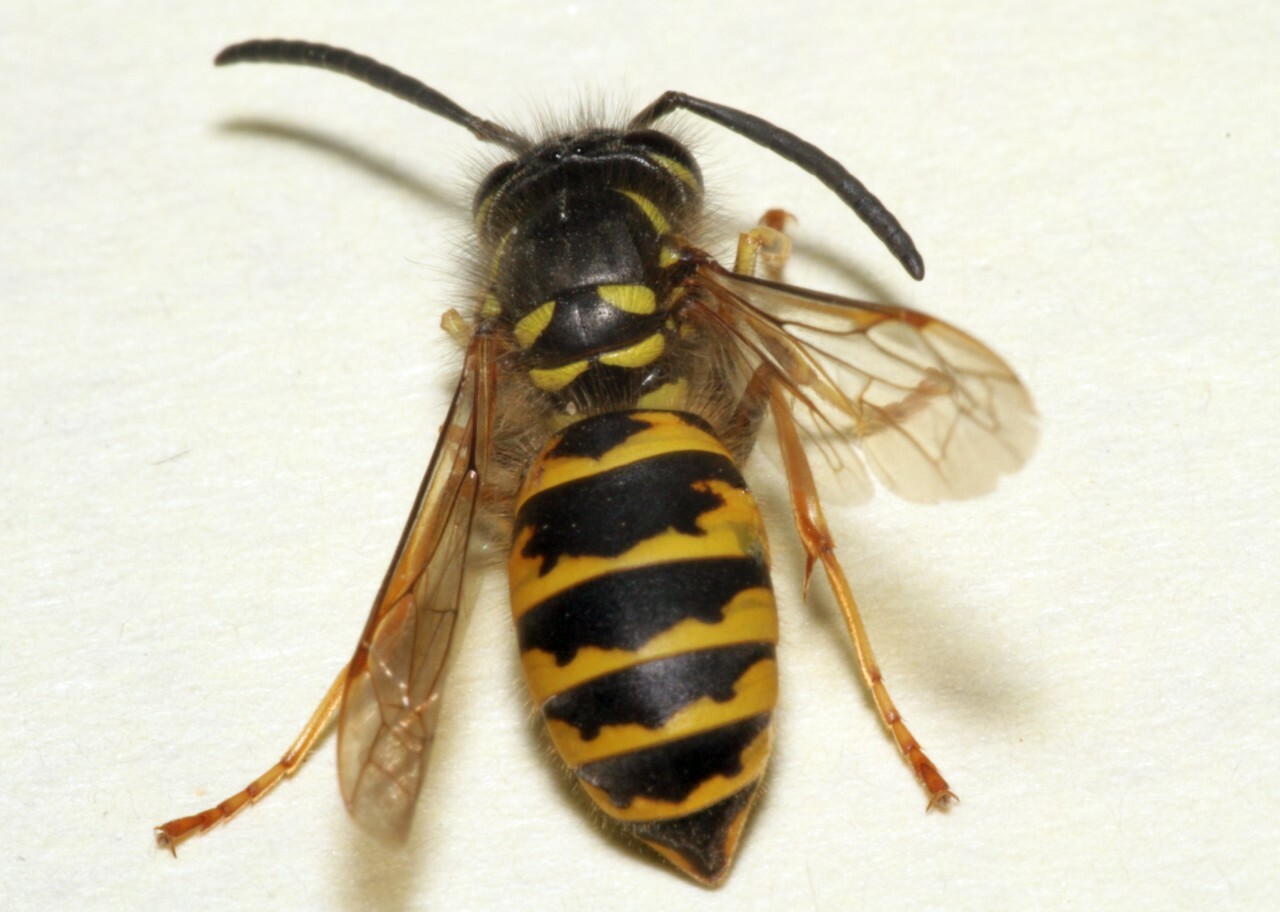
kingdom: Animalia
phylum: Arthropoda
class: Insecta
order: Hymenoptera
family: Vespidae
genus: Vespula
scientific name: Vespula vulgaris
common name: Common wasp
